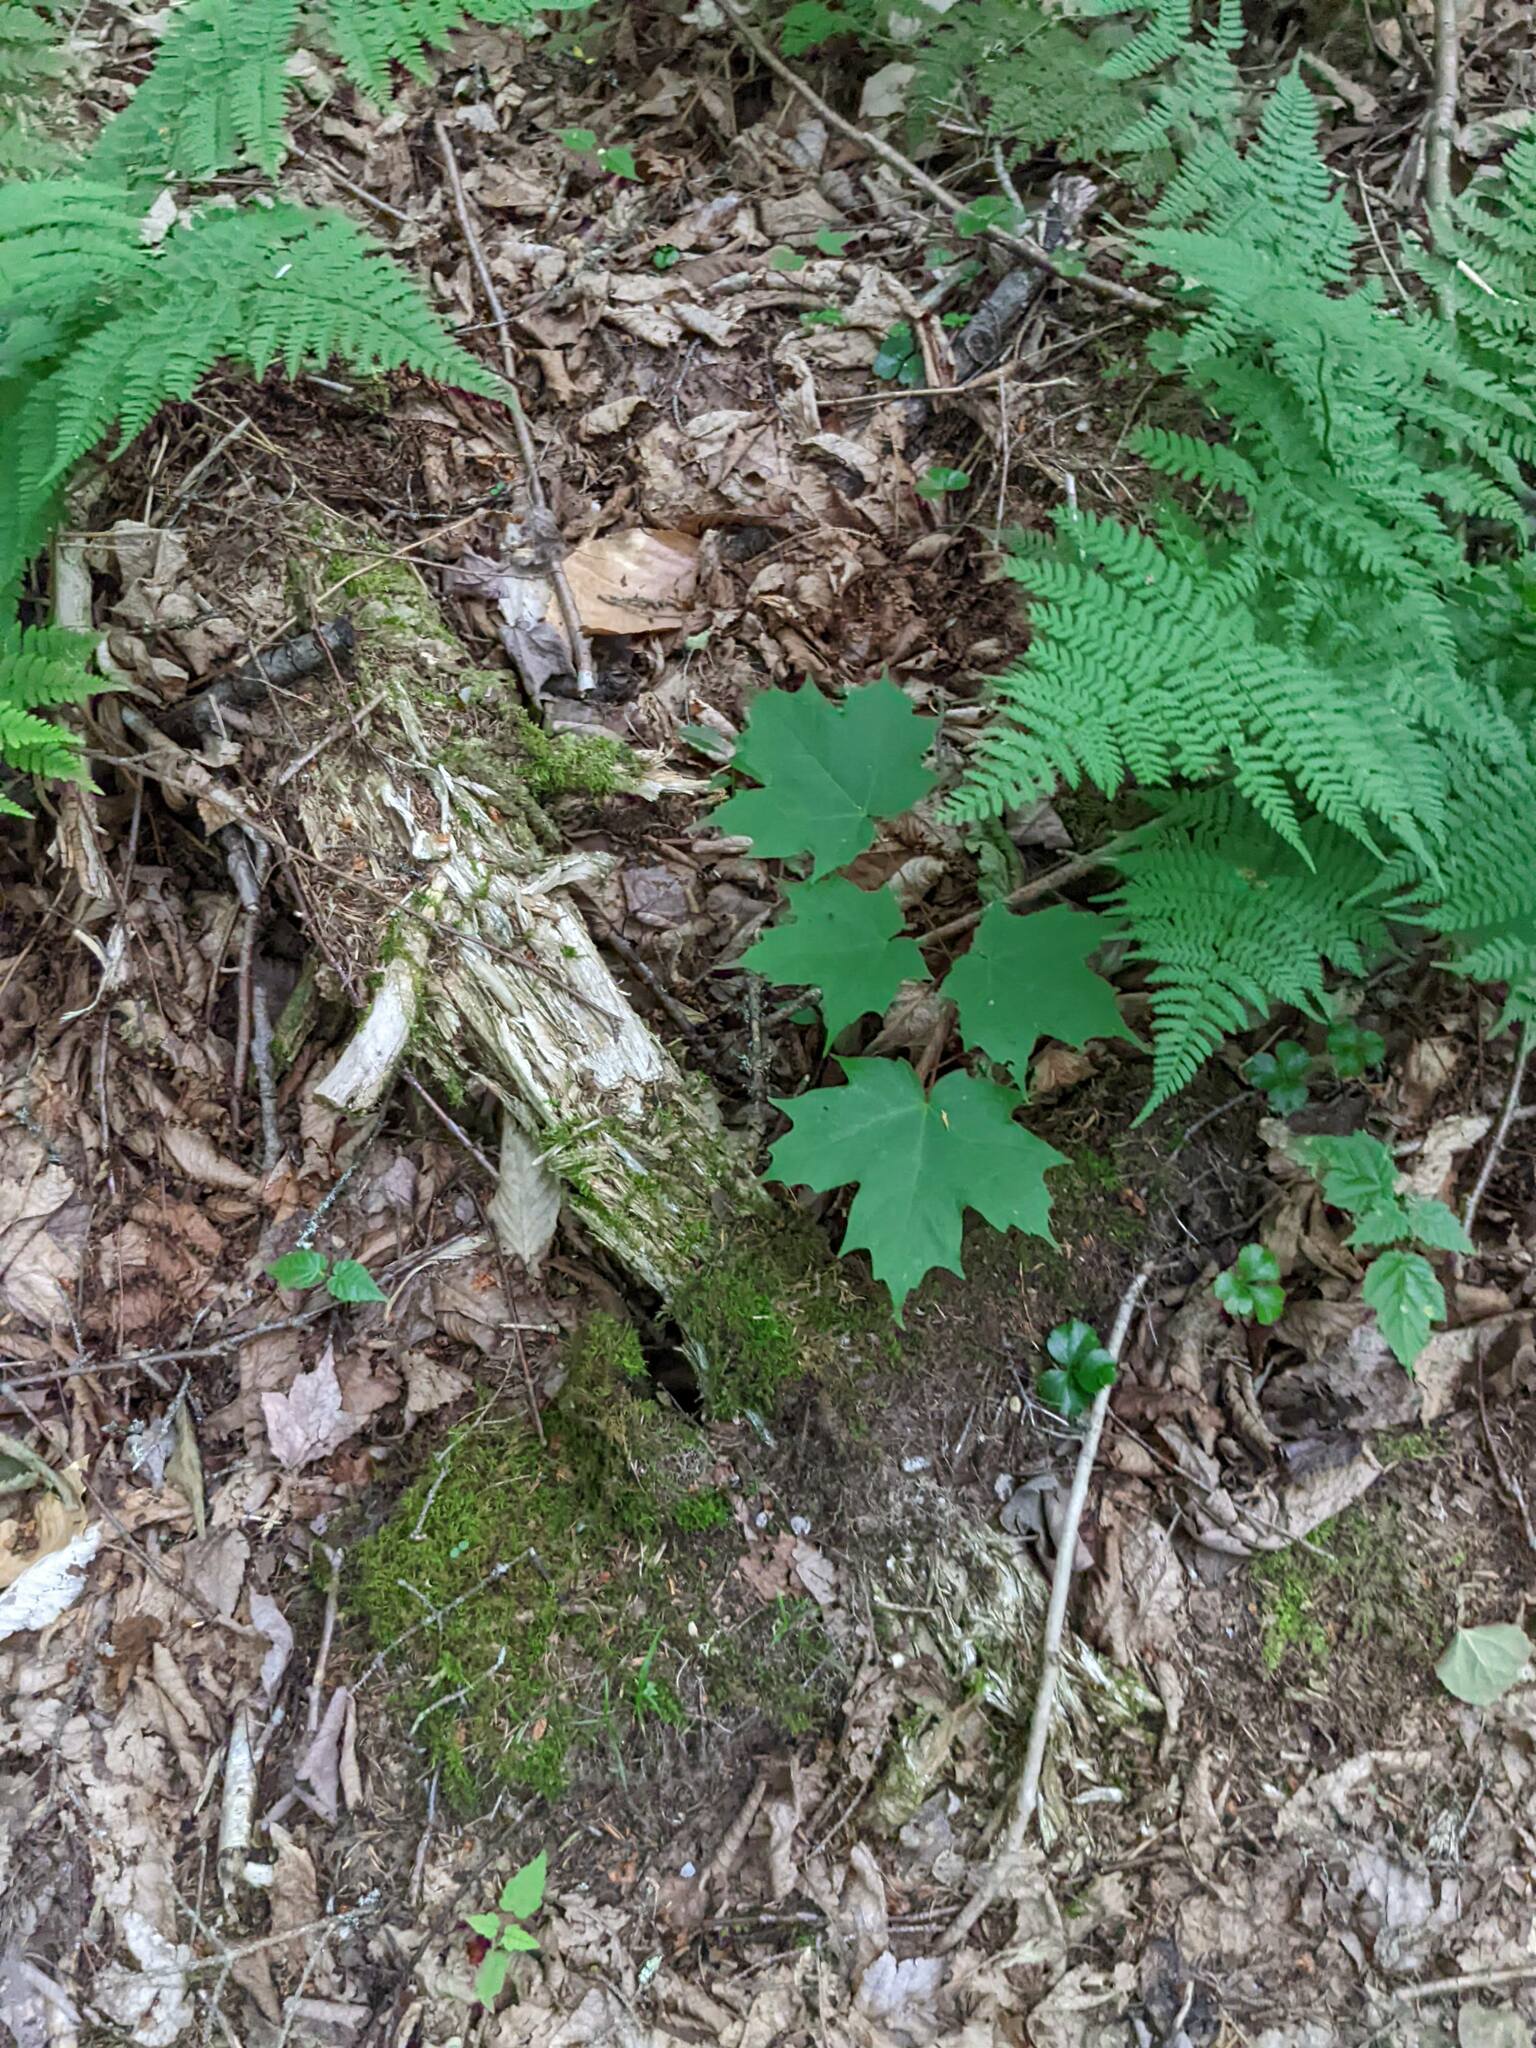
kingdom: Plantae
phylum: Tracheophyta
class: Magnoliopsida
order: Sapindales
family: Sapindaceae
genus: Acer
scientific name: Acer saccharum
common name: Sugar maple
